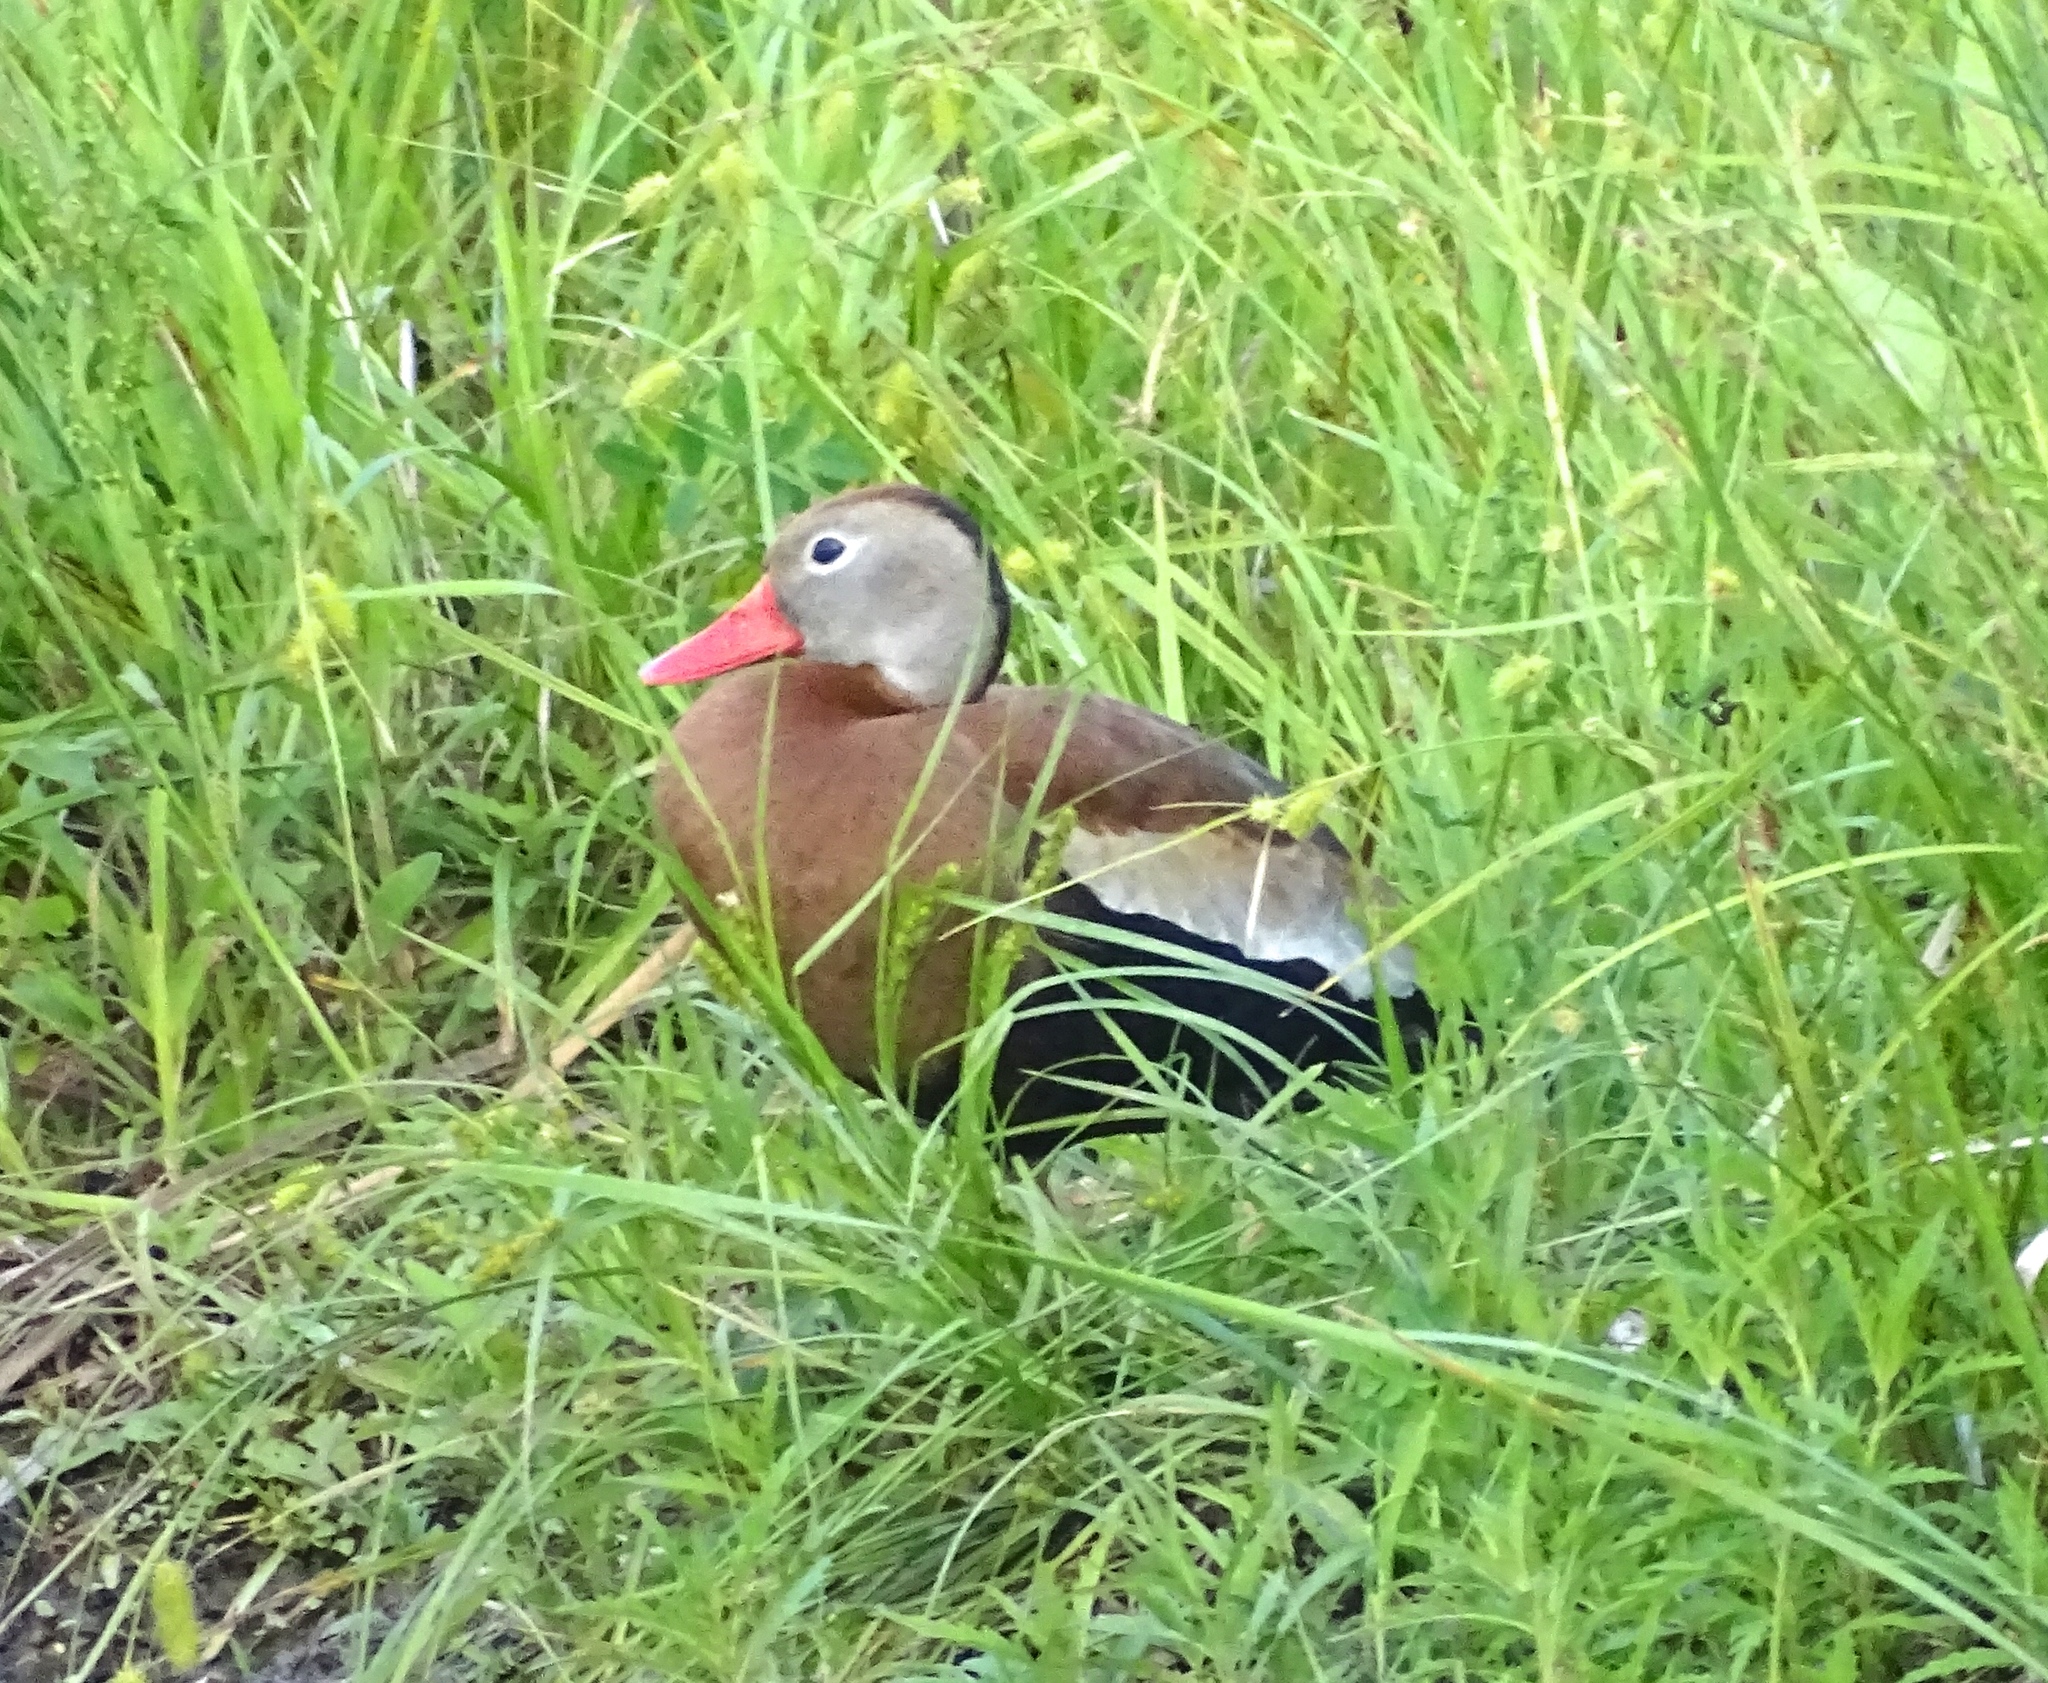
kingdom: Animalia
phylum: Chordata
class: Aves
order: Anseriformes
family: Anatidae
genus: Dendrocygna
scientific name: Dendrocygna autumnalis
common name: Black-bellied whistling duck
